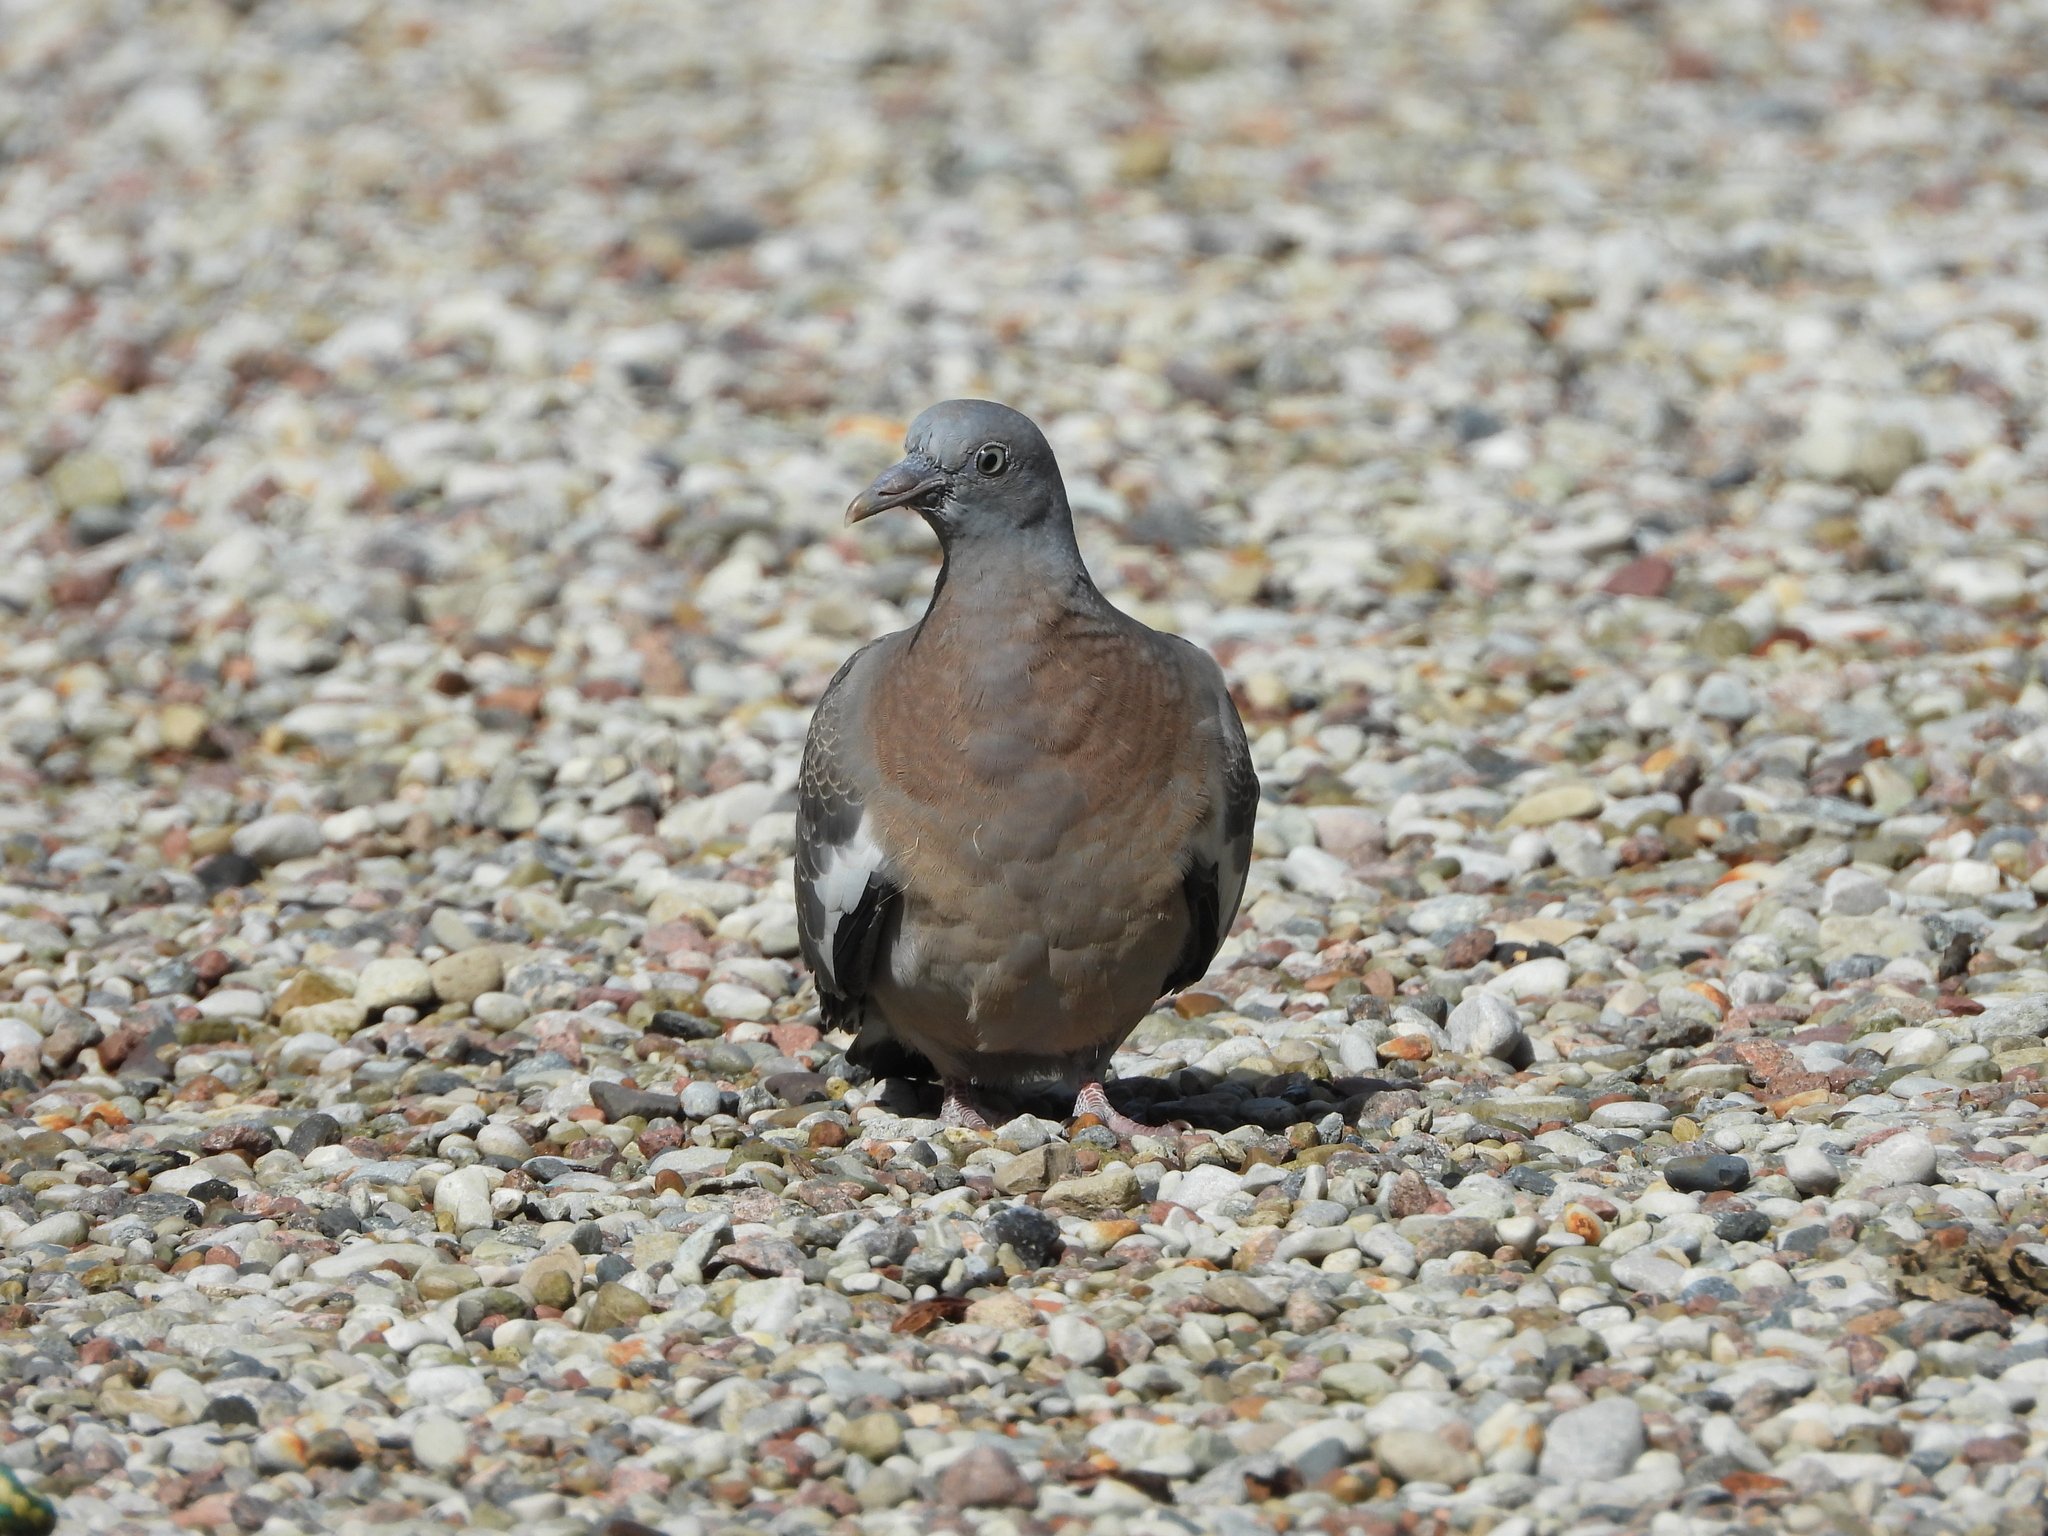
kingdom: Animalia
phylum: Chordata
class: Aves
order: Columbiformes
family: Columbidae
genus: Columba
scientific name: Columba palumbus
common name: Common wood pigeon
